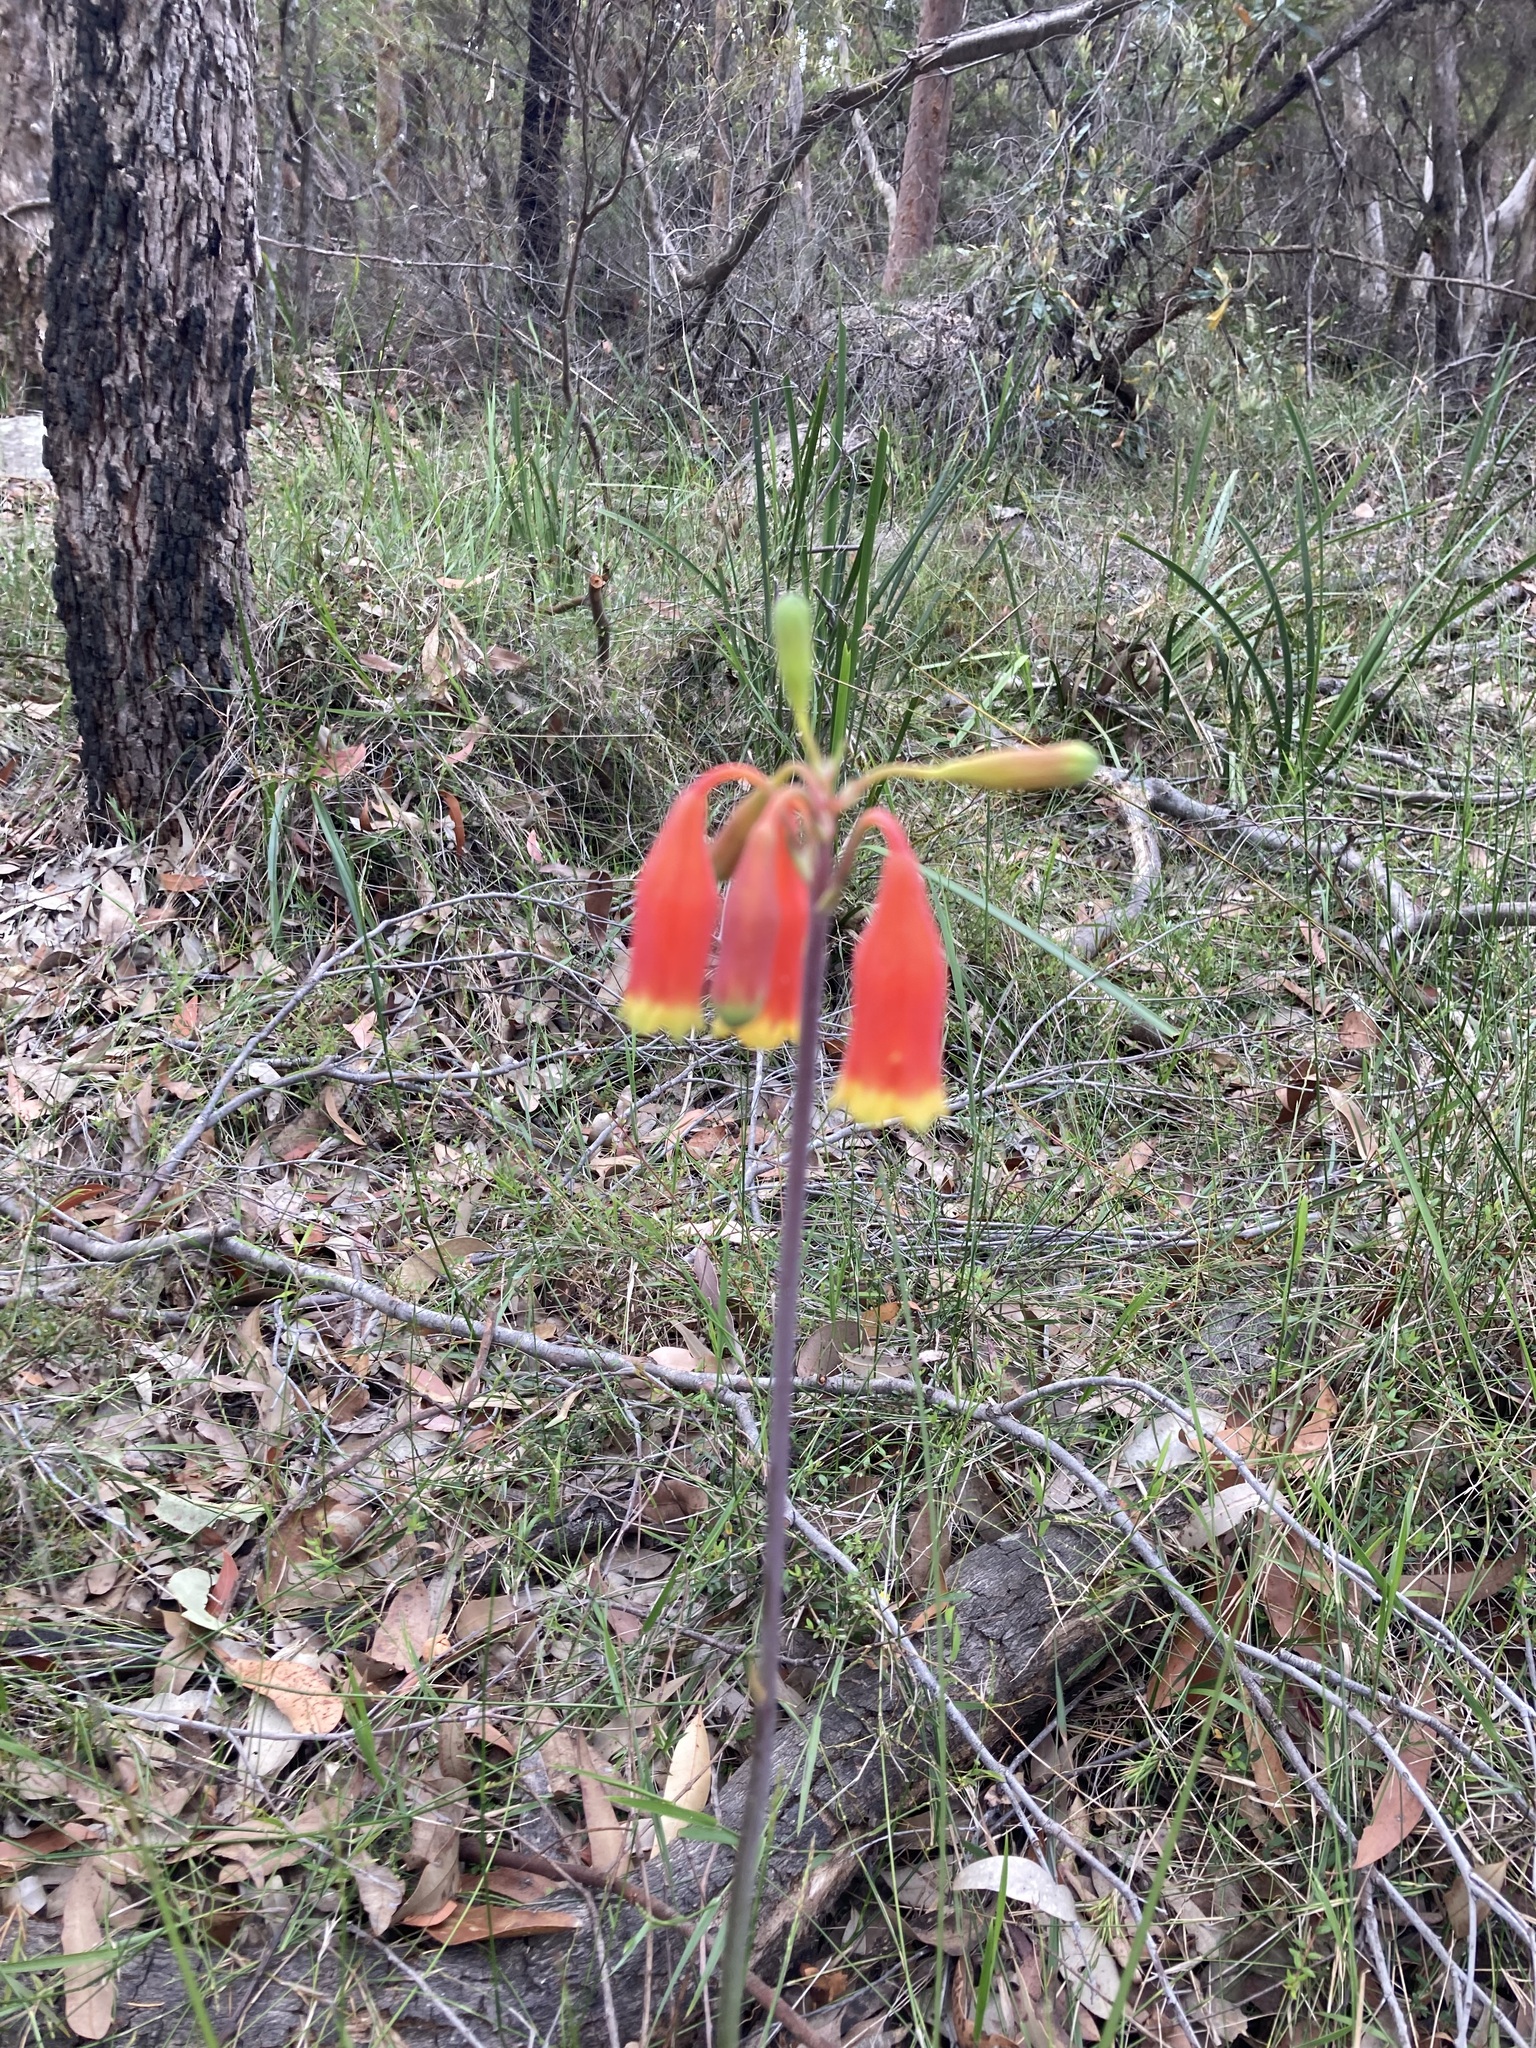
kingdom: Plantae
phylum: Tracheophyta
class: Liliopsida
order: Asparagales
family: Blandfordiaceae
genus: Blandfordia
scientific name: Blandfordia nobilis
